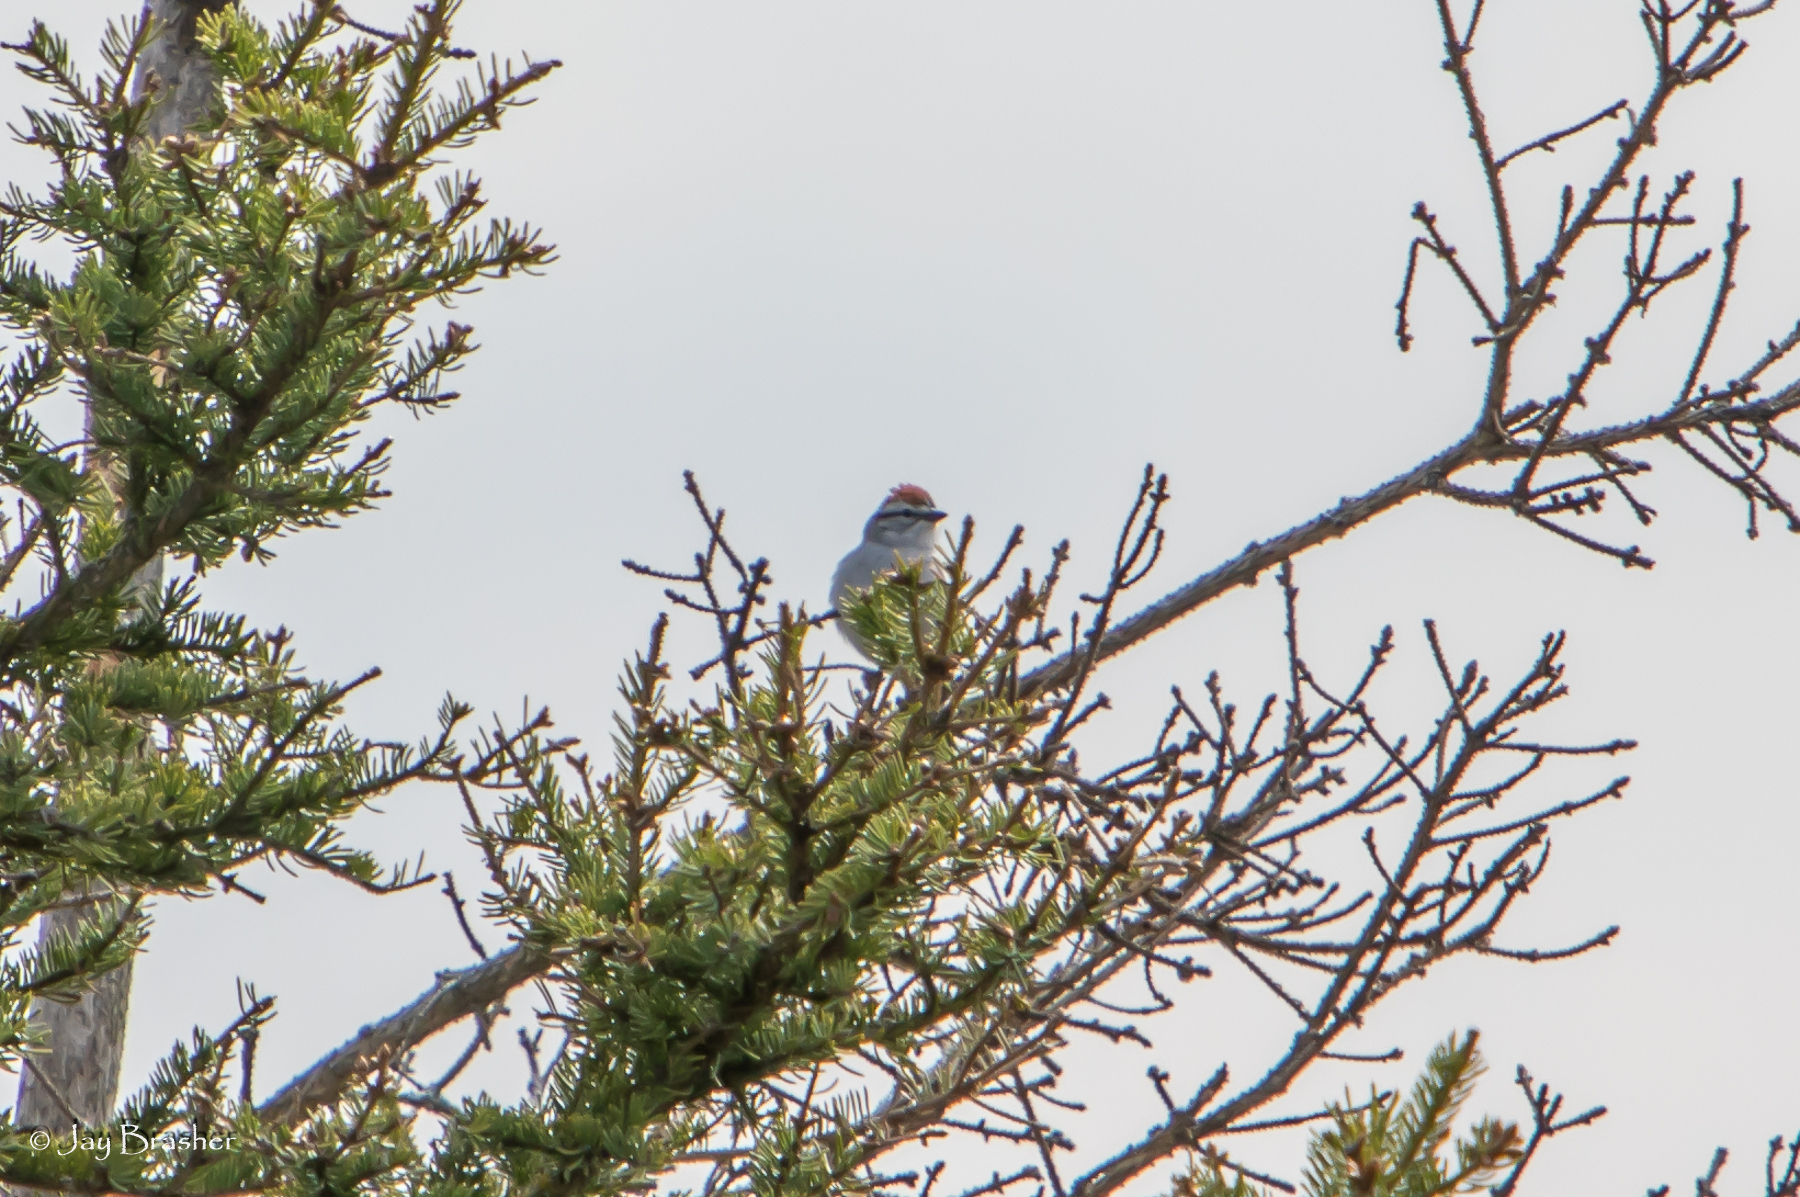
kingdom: Animalia
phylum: Chordata
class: Aves
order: Passeriformes
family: Passerellidae
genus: Spizella
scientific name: Spizella passerina
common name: Chipping sparrow
